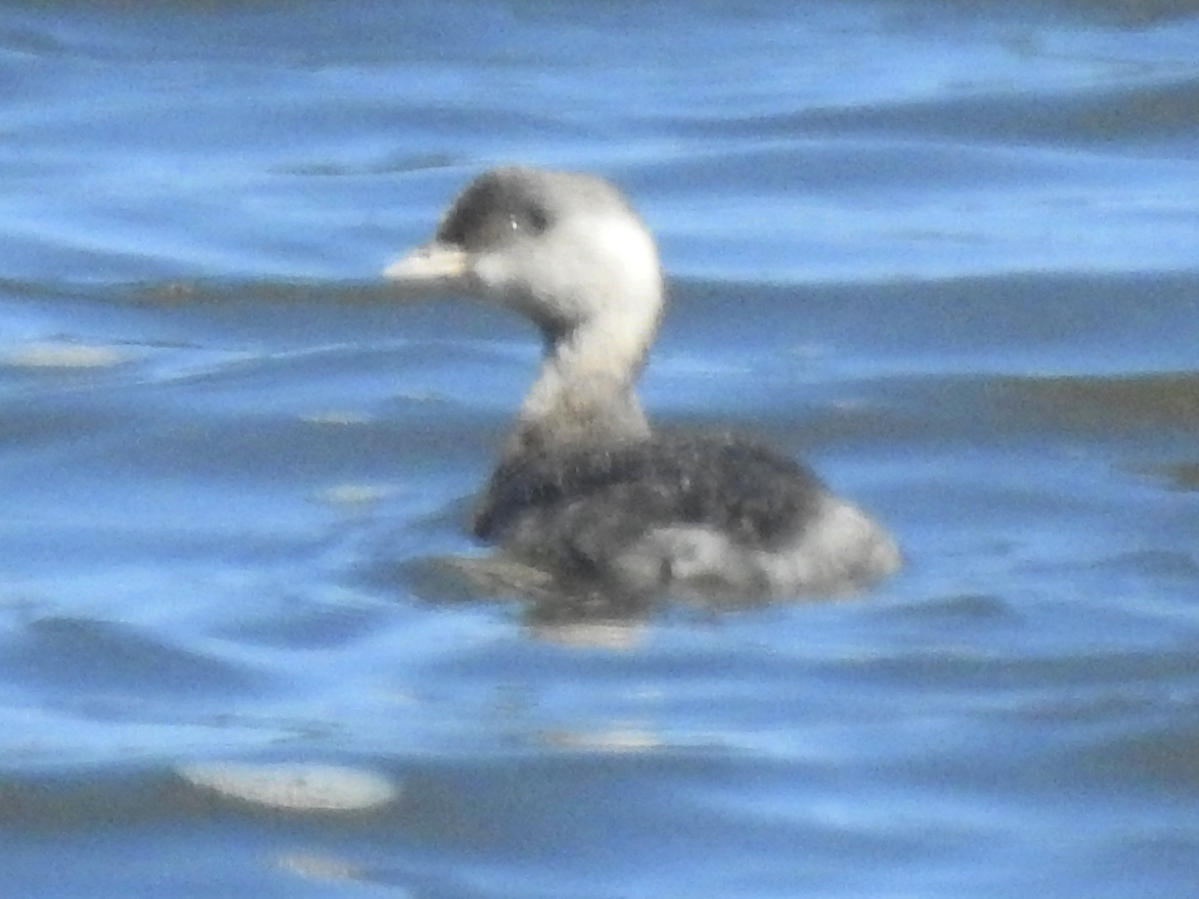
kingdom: Animalia
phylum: Chordata
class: Aves
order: Podicipediformes
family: Podicipedidae
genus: Poliocephalus
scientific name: Poliocephalus poliocephalus
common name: Hoary-headed grebe
